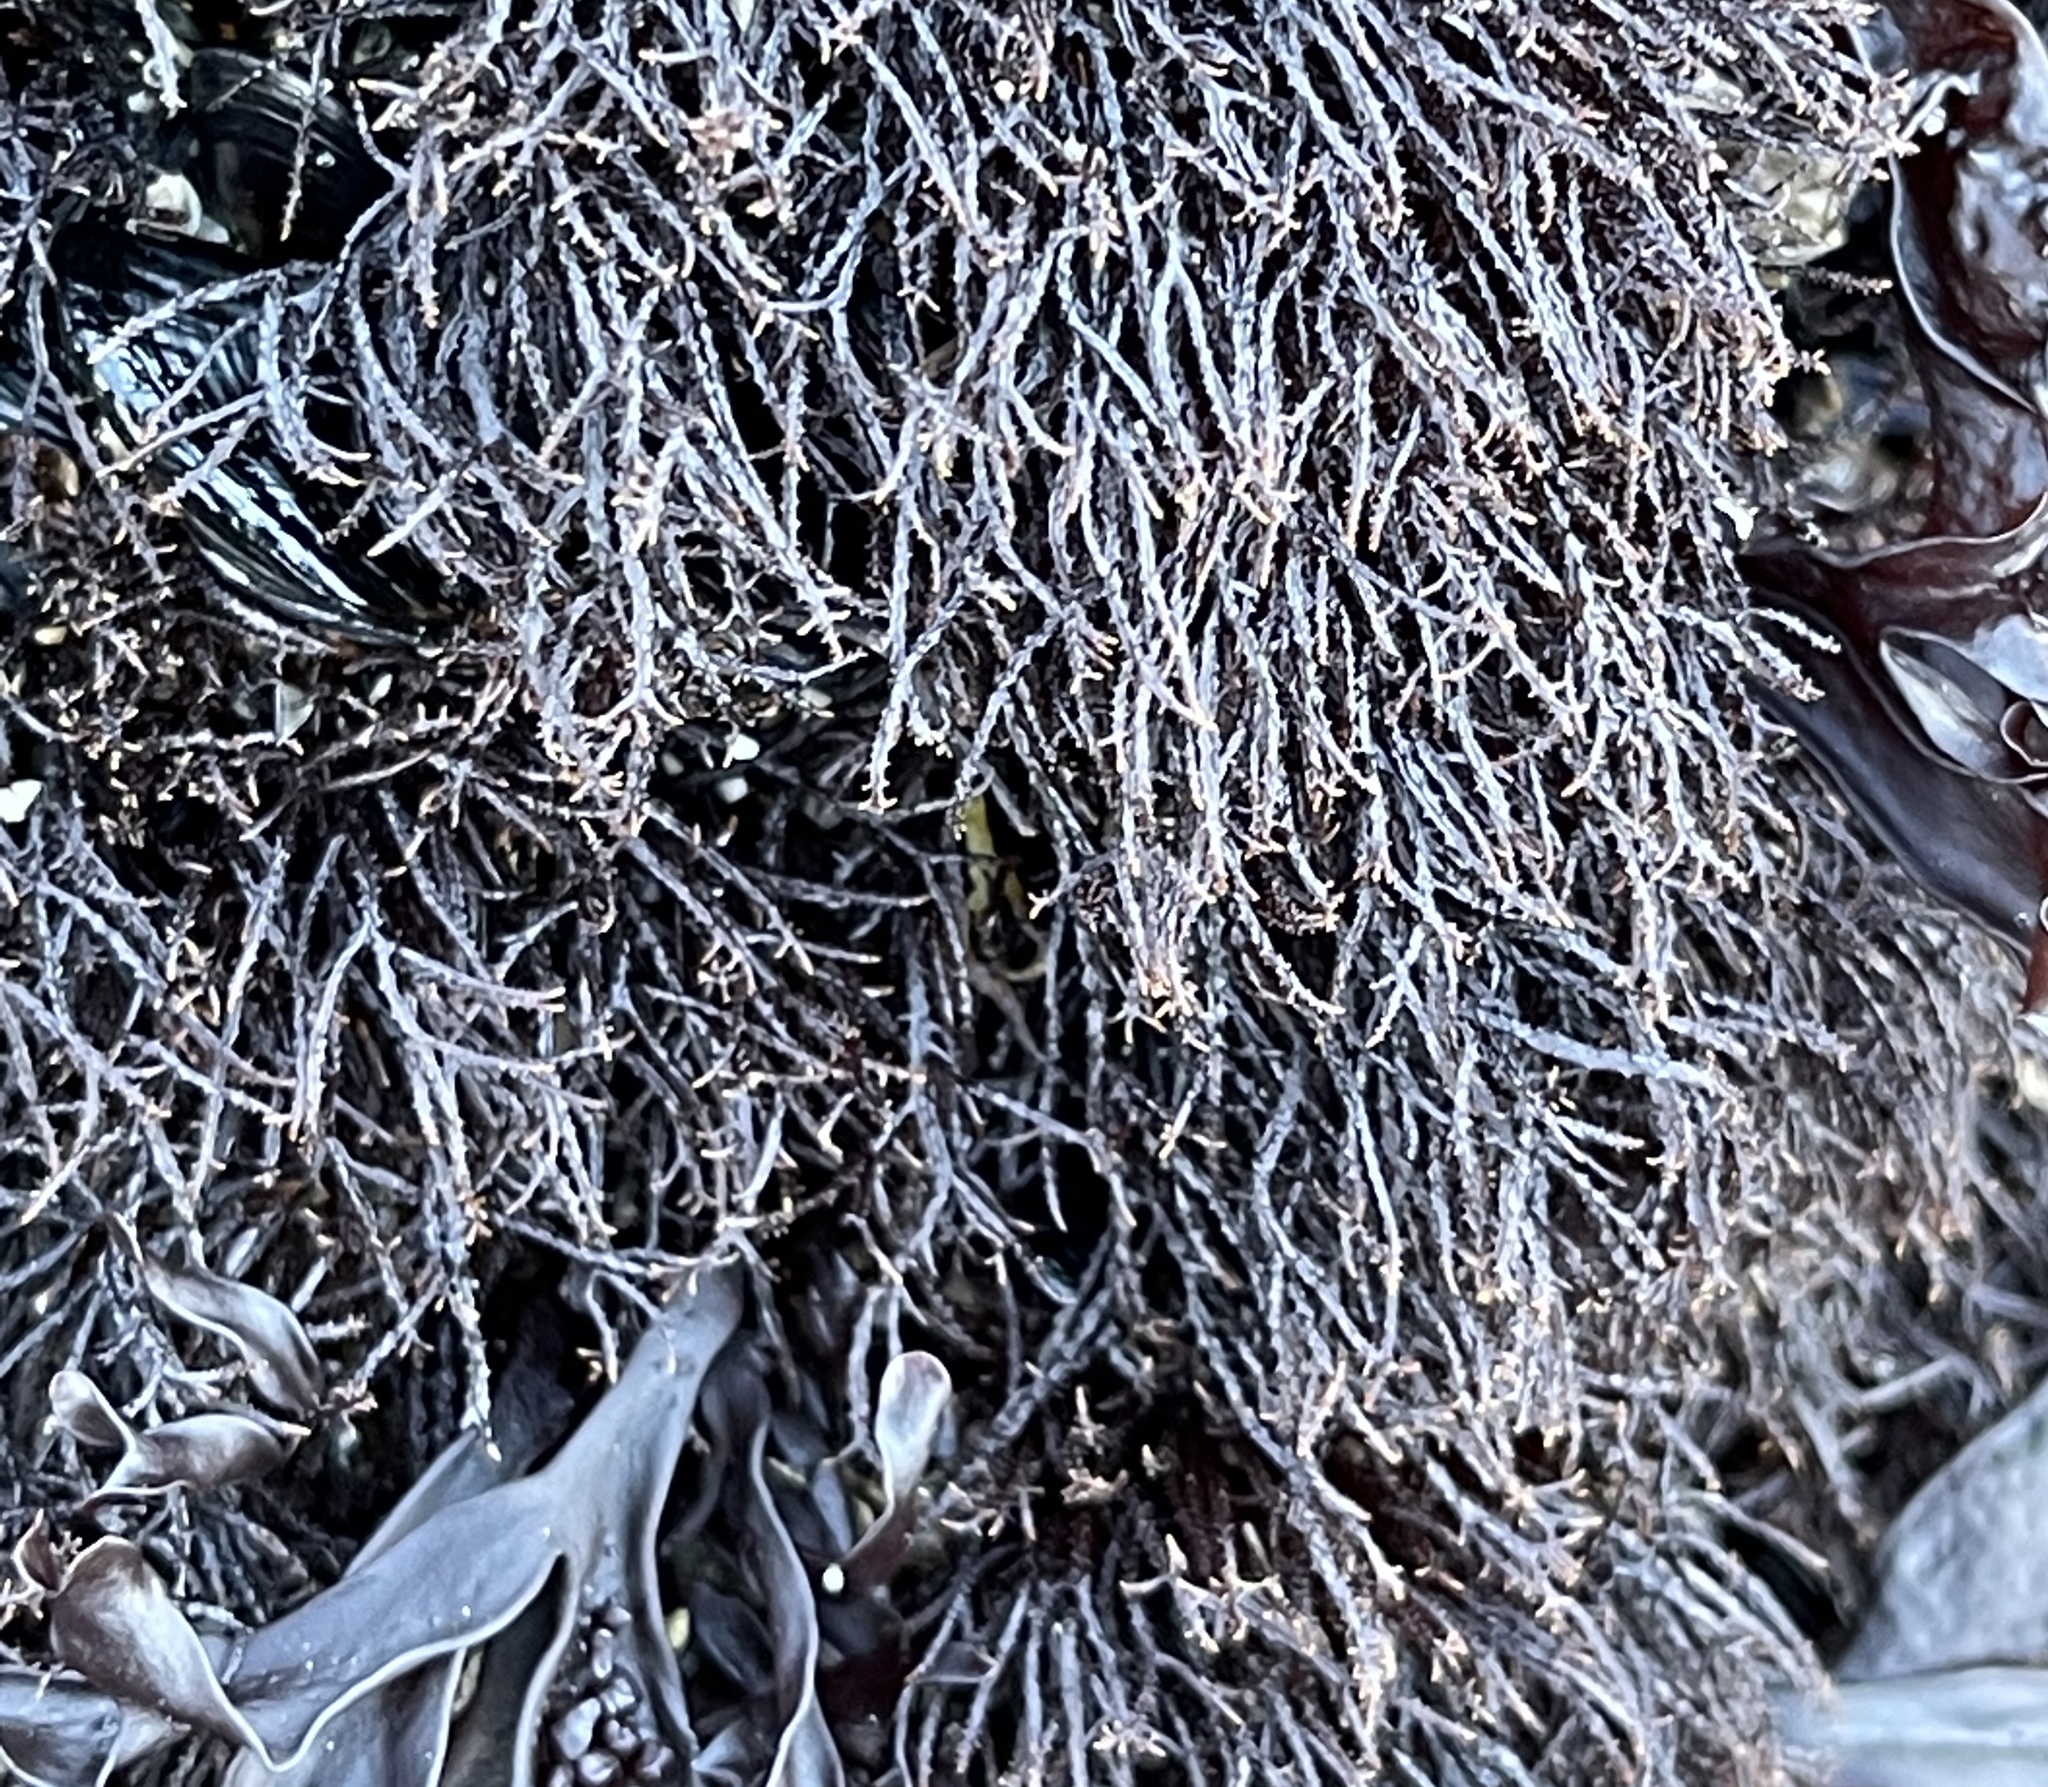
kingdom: Plantae
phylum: Rhodophyta
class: Florideophyceae
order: Gigartinales
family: Endocladiaceae
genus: Endocladia
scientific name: Endocladia muricata
